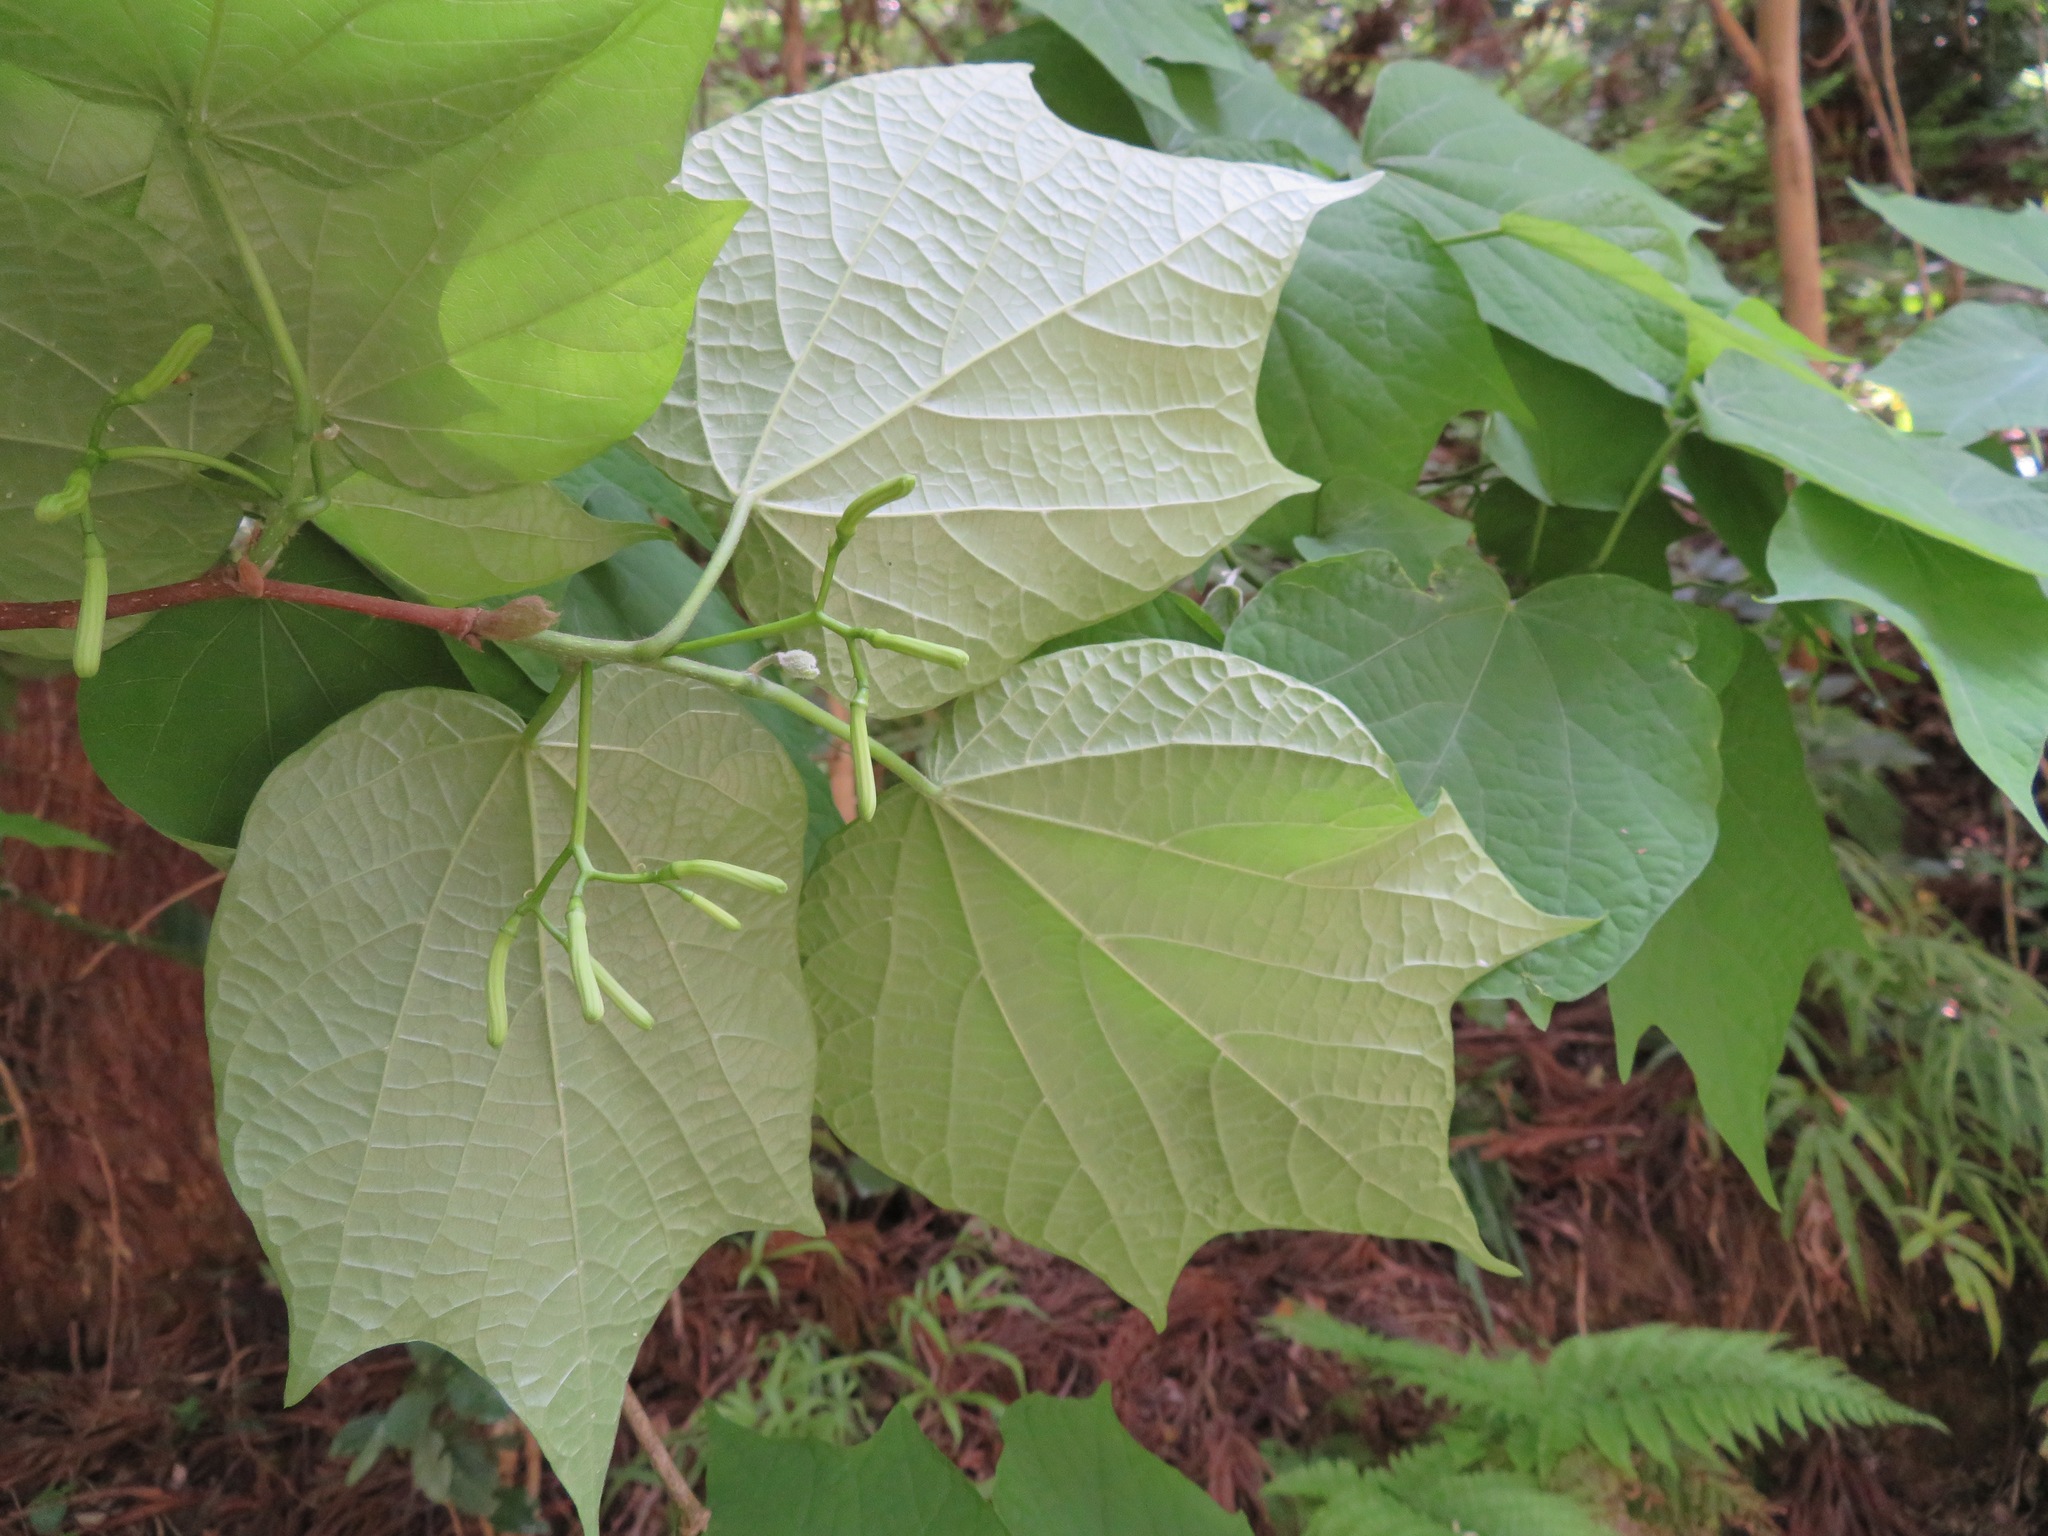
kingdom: Plantae
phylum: Tracheophyta
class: Magnoliopsida
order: Cornales
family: Cornaceae
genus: Alangium
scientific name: Alangium platanifolium
